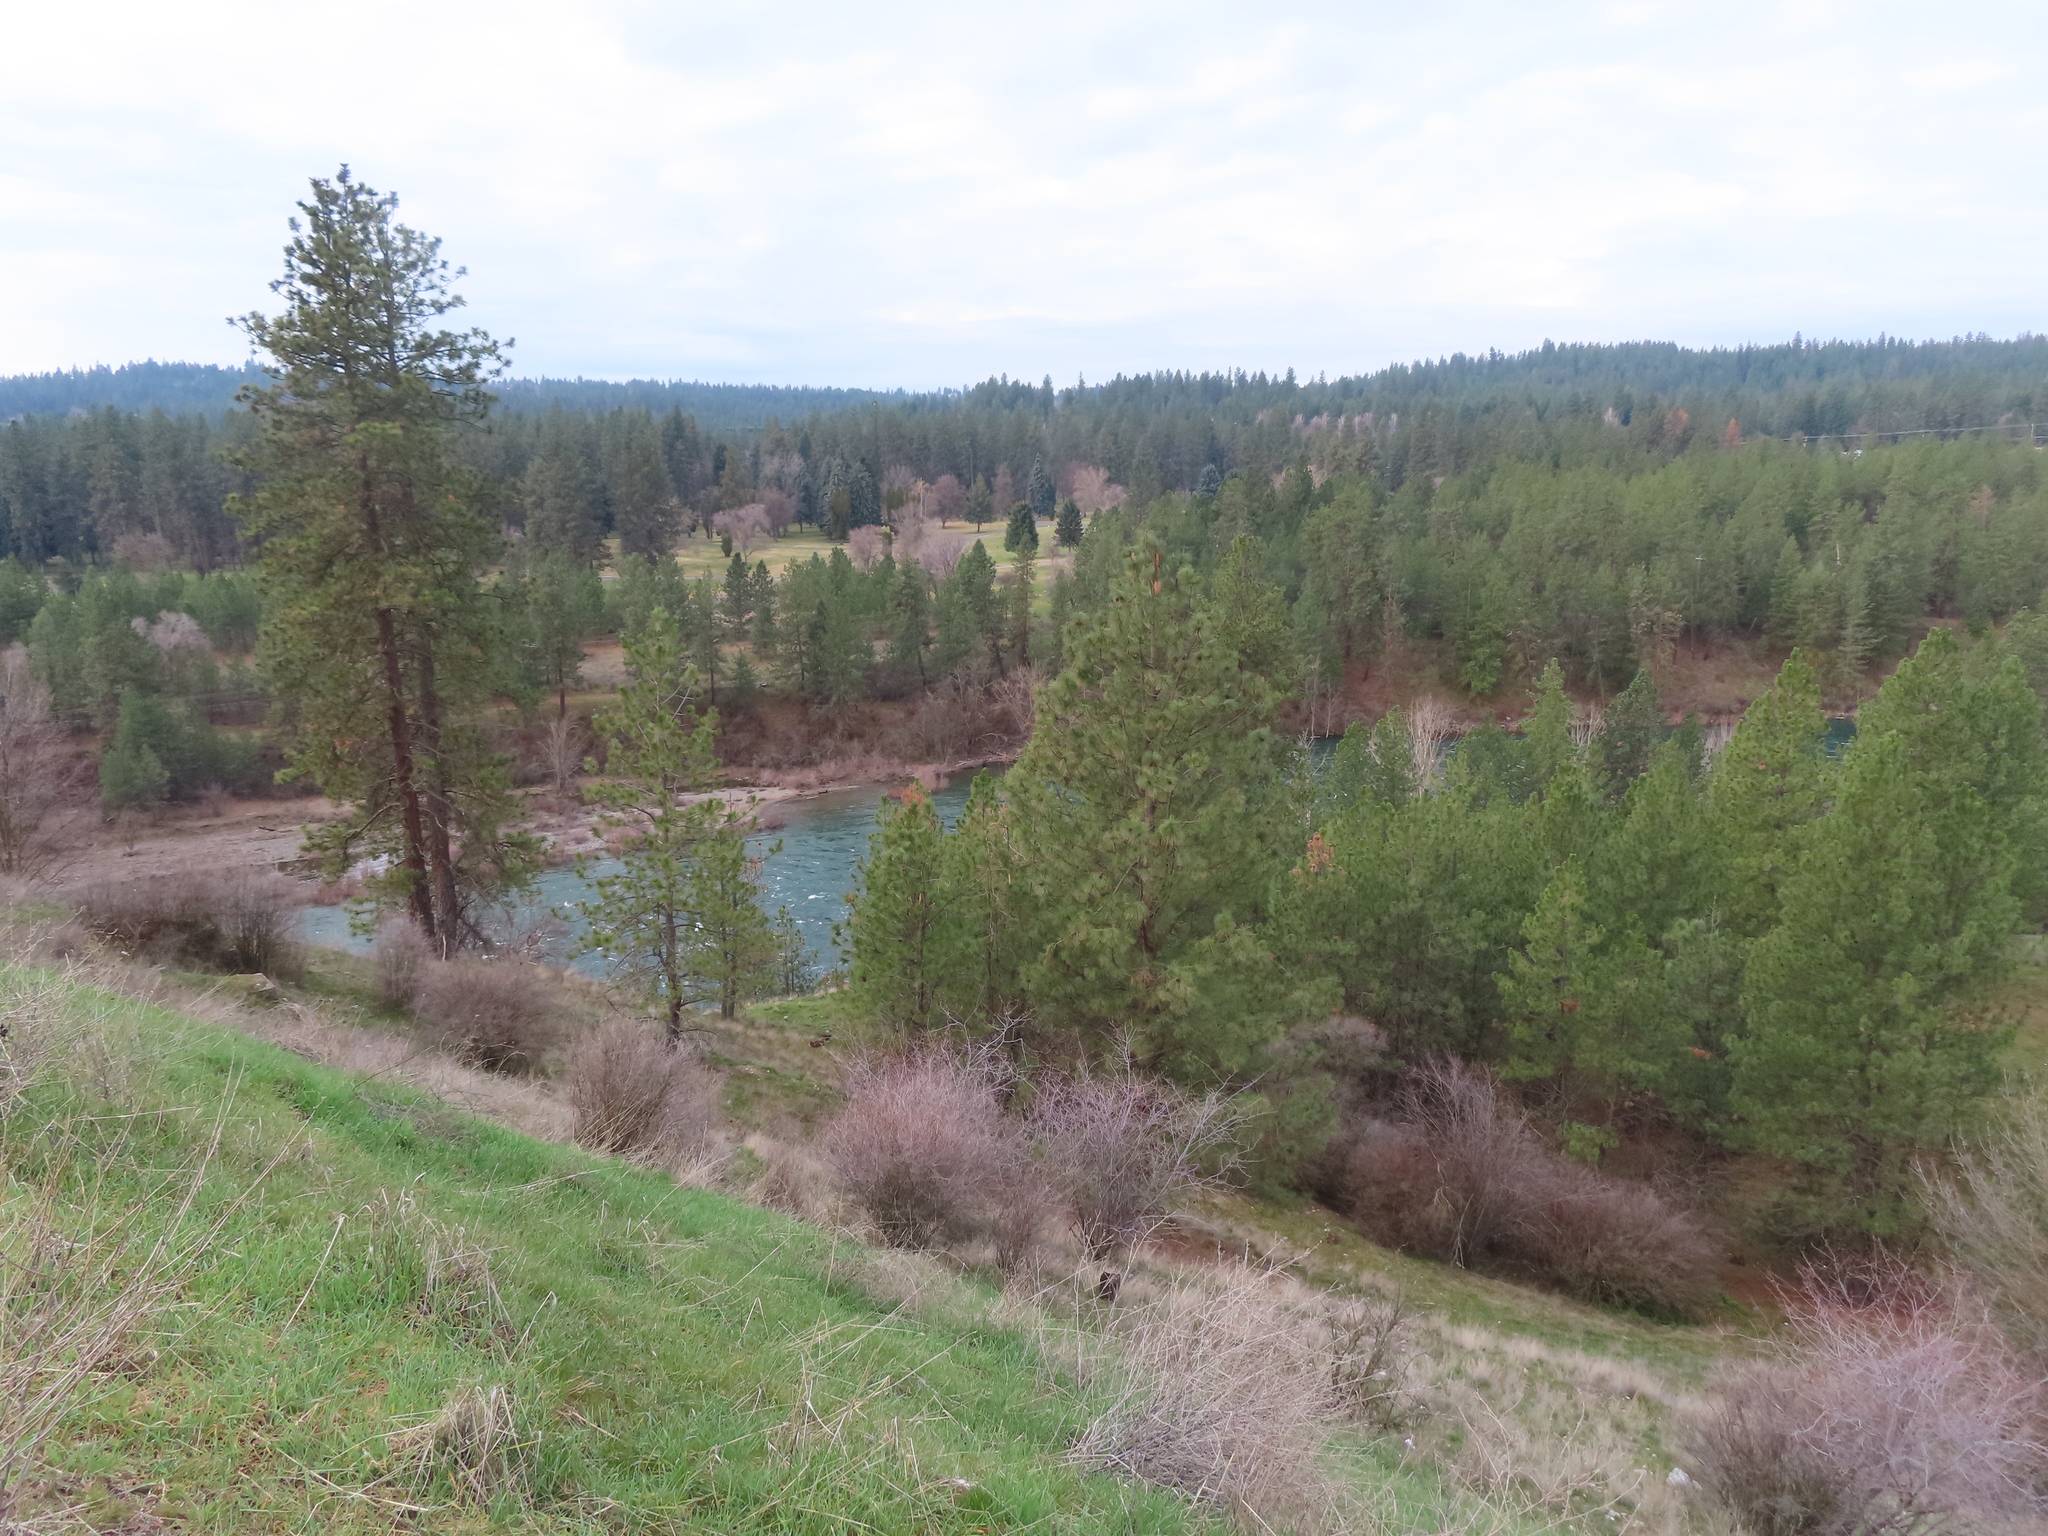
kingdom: Plantae
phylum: Tracheophyta
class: Pinopsida
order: Pinales
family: Pinaceae
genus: Pinus
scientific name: Pinus ponderosa
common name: Western yellow-pine
